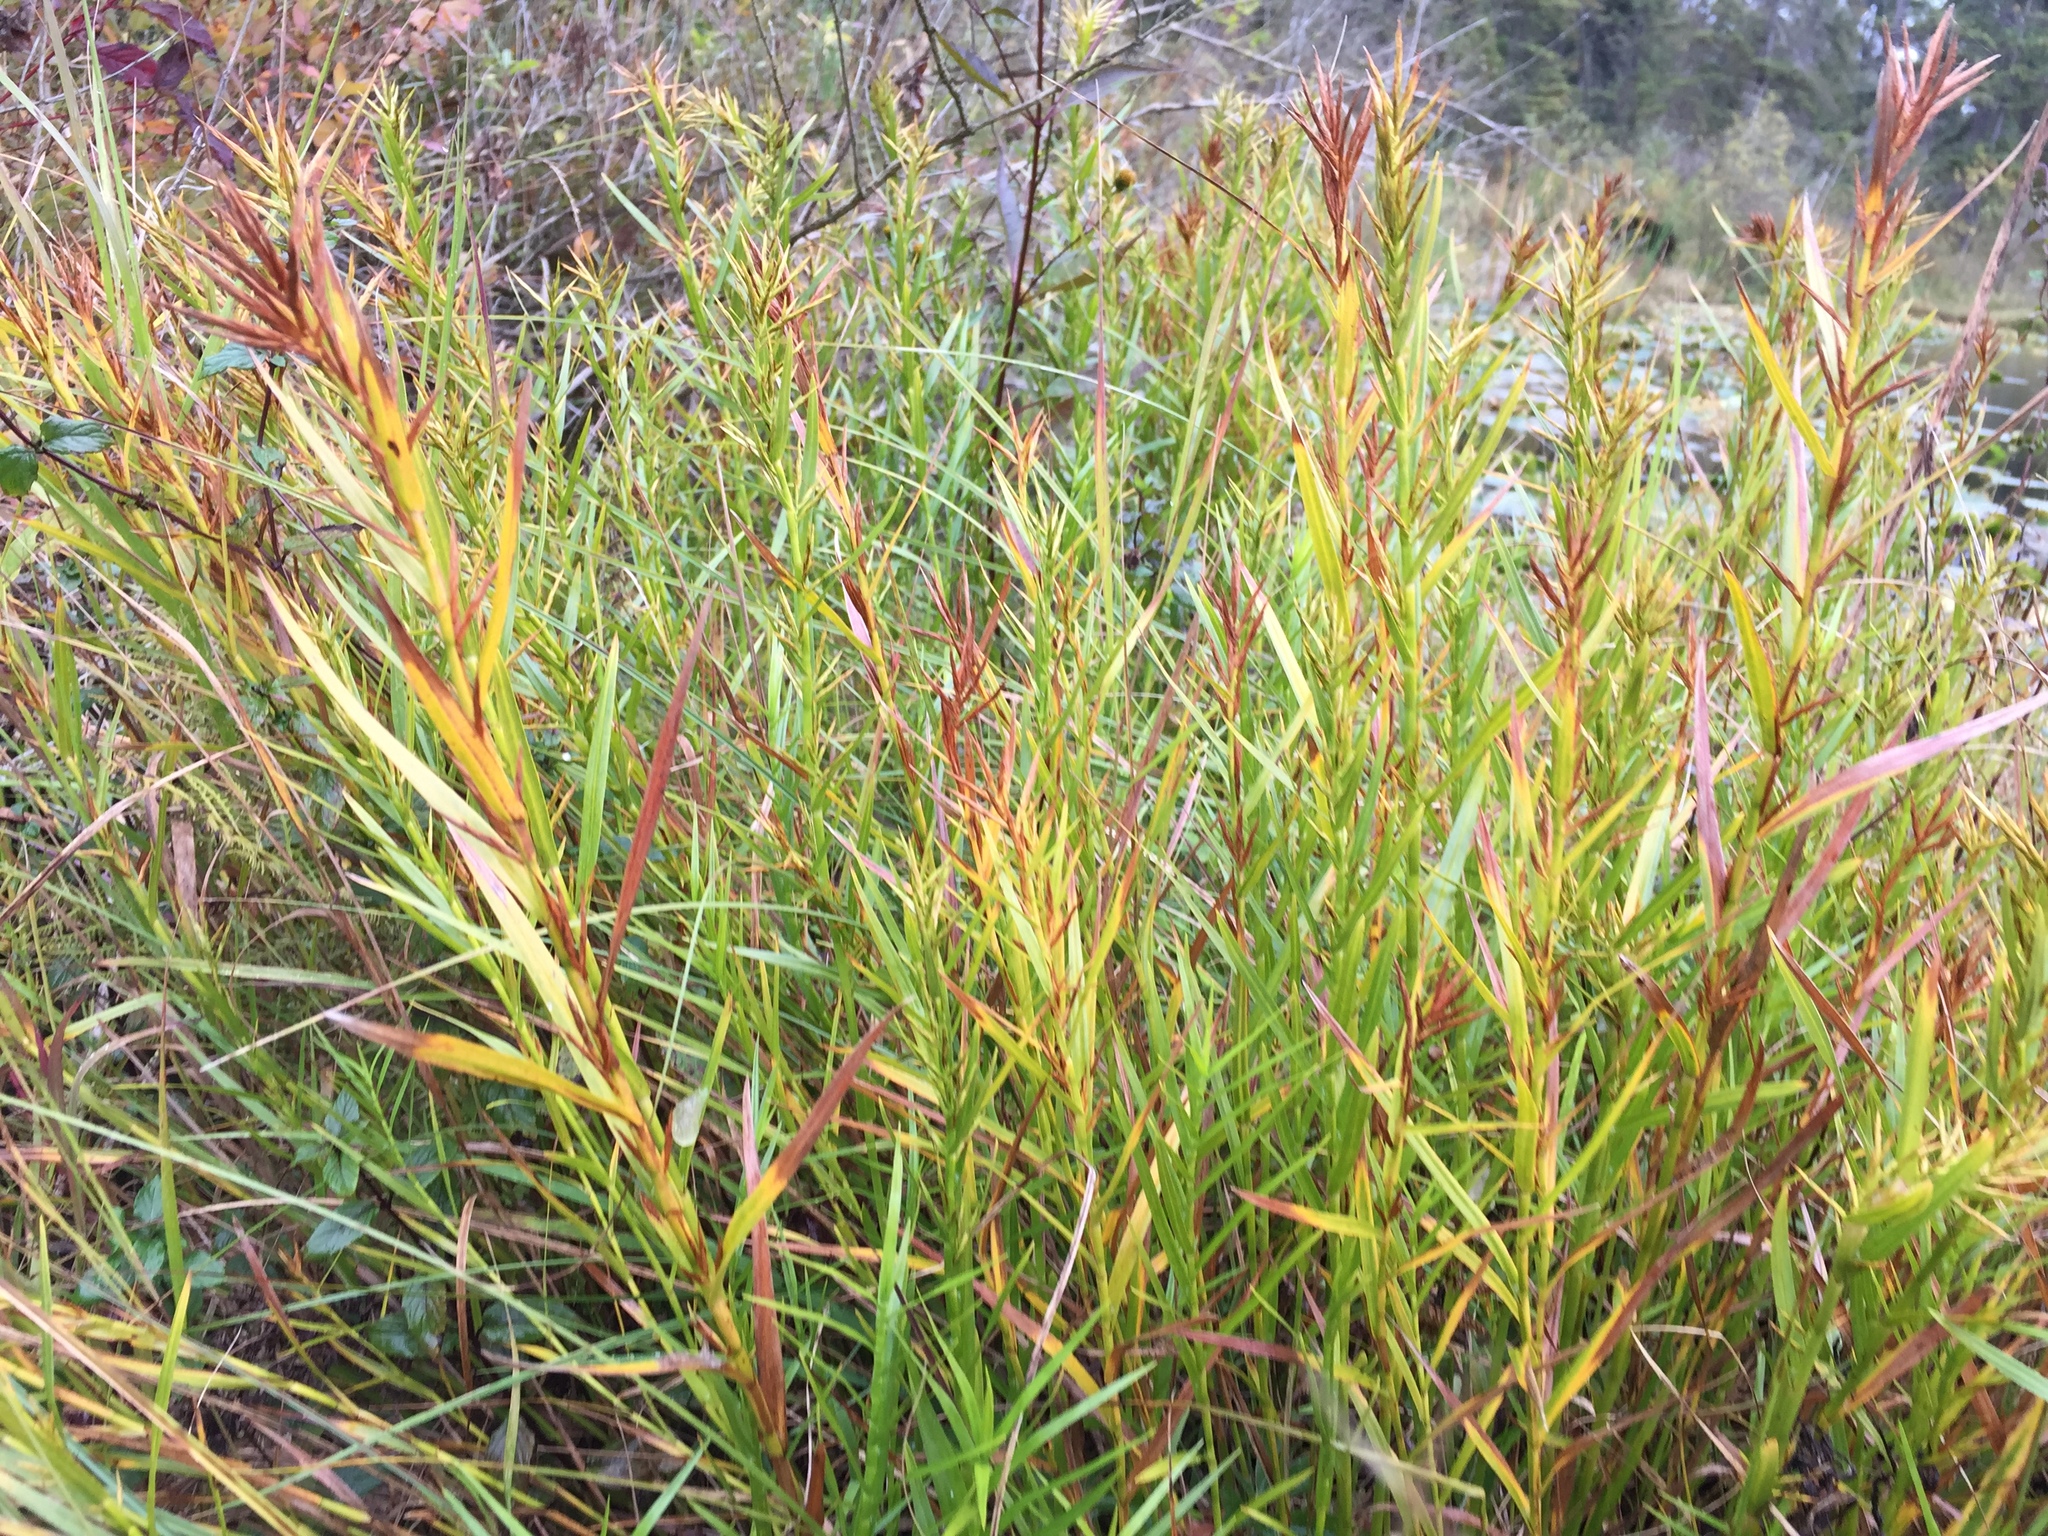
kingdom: Plantae
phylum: Tracheophyta
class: Liliopsida
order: Poales
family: Cyperaceae
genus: Dulichium
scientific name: Dulichium arundinaceum
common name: Three-way sedge
